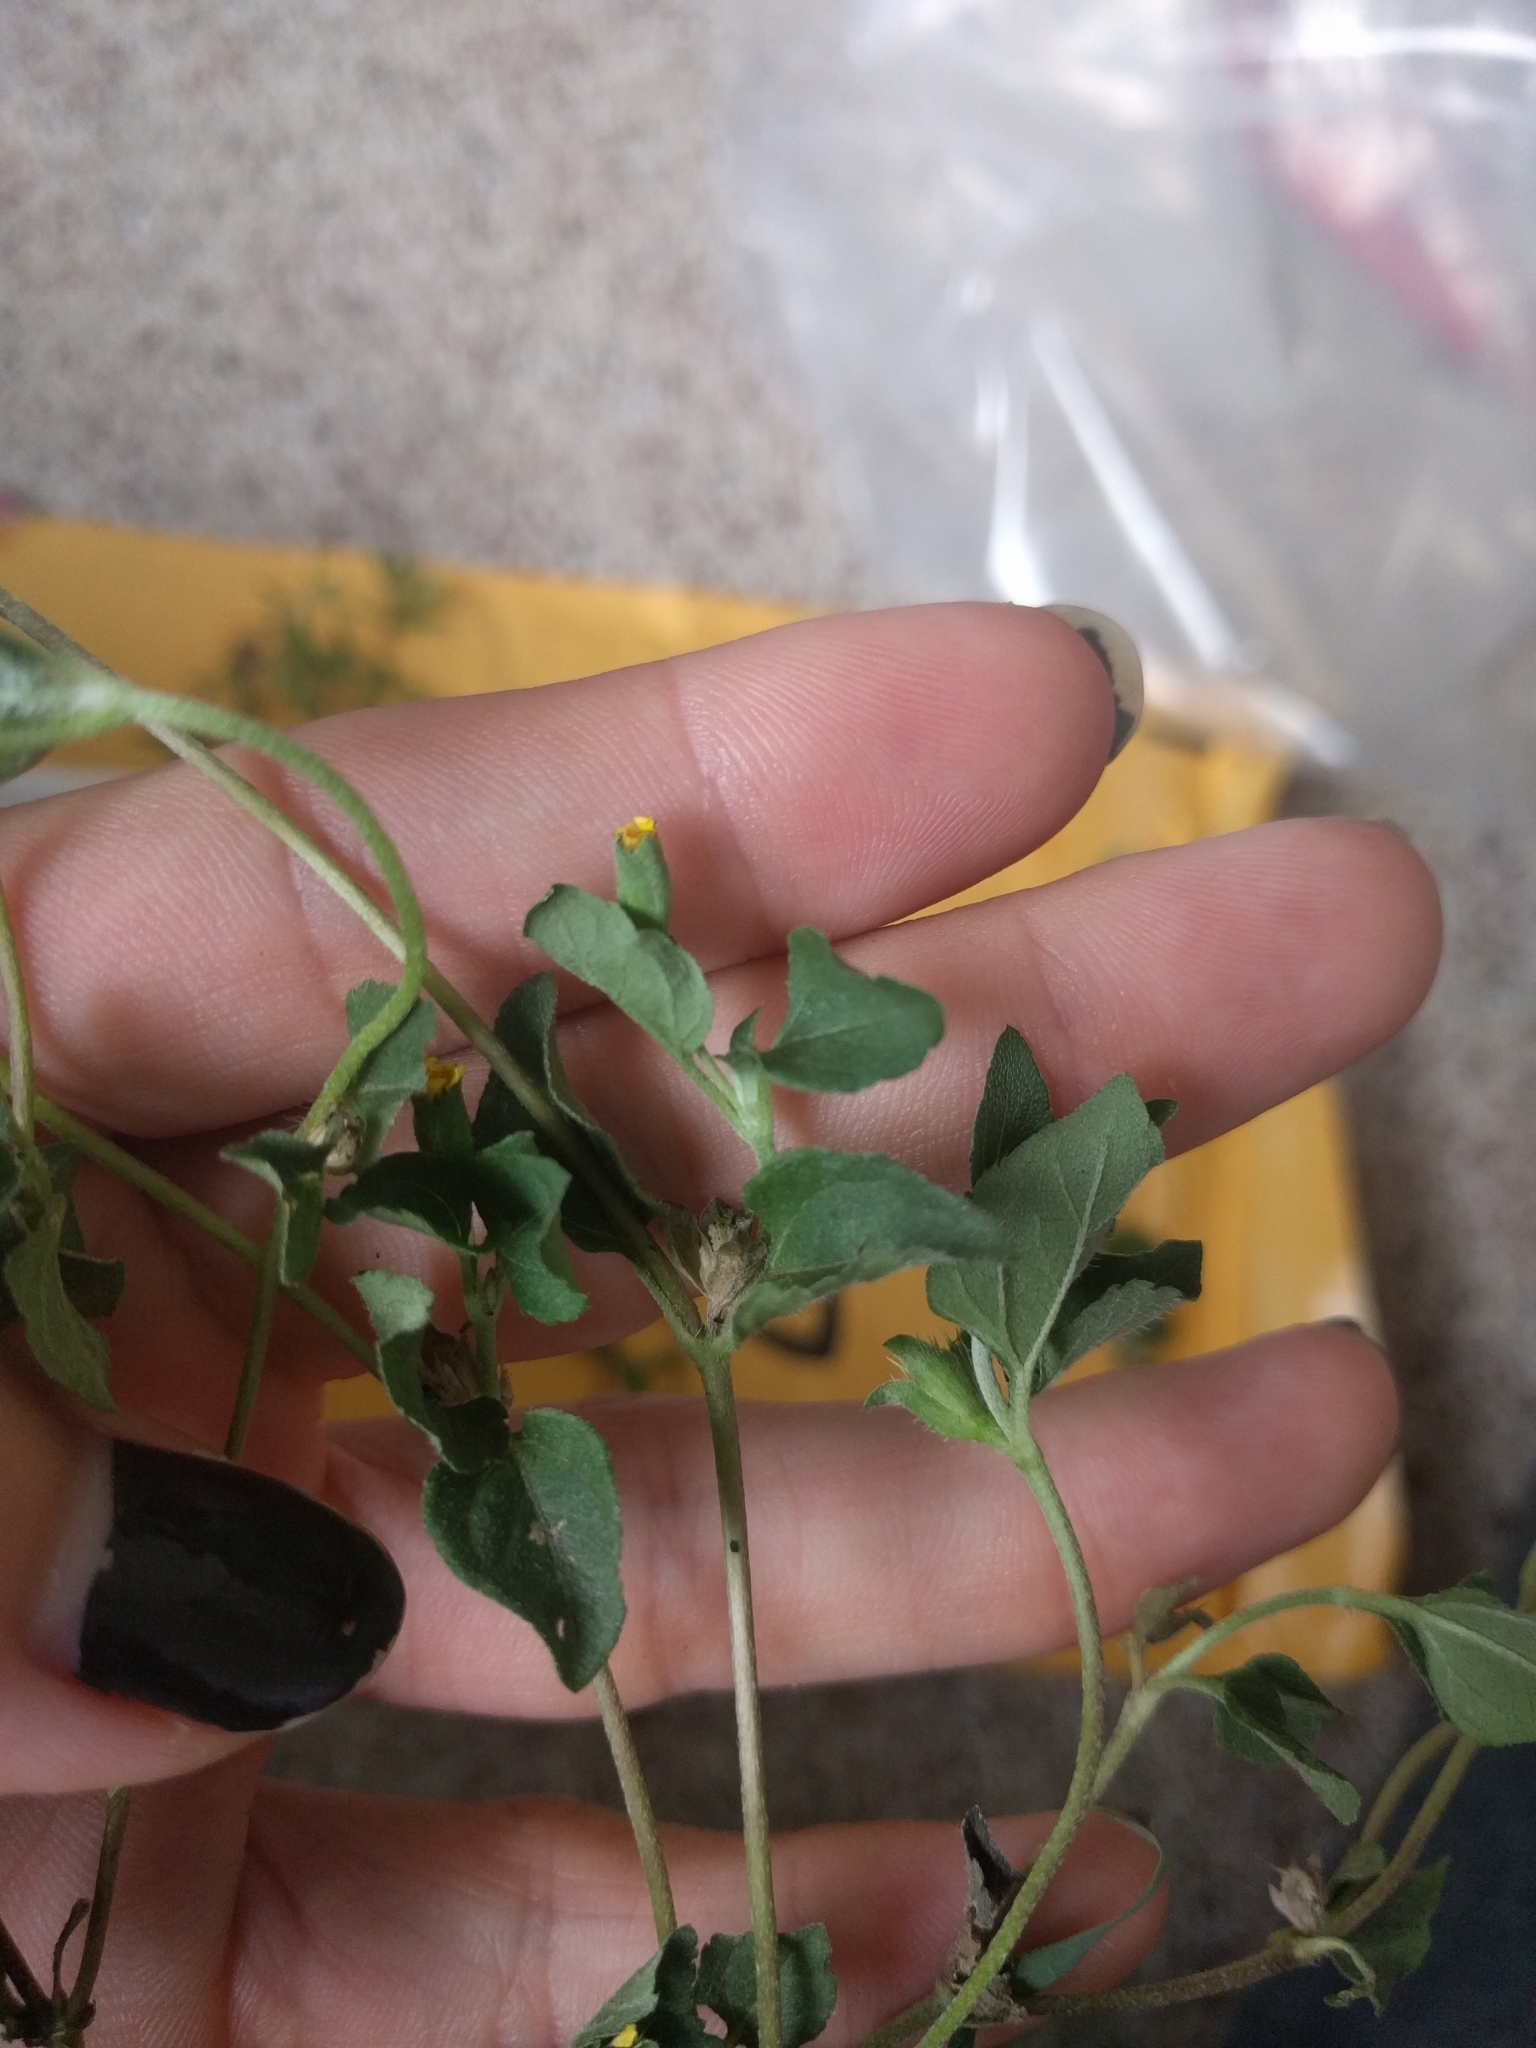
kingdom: Plantae
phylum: Tracheophyta
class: Magnoliopsida
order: Asterales
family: Asteraceae
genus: Calyptocarpus
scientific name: Calyptocarpus vialis
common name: Straggler daisy
